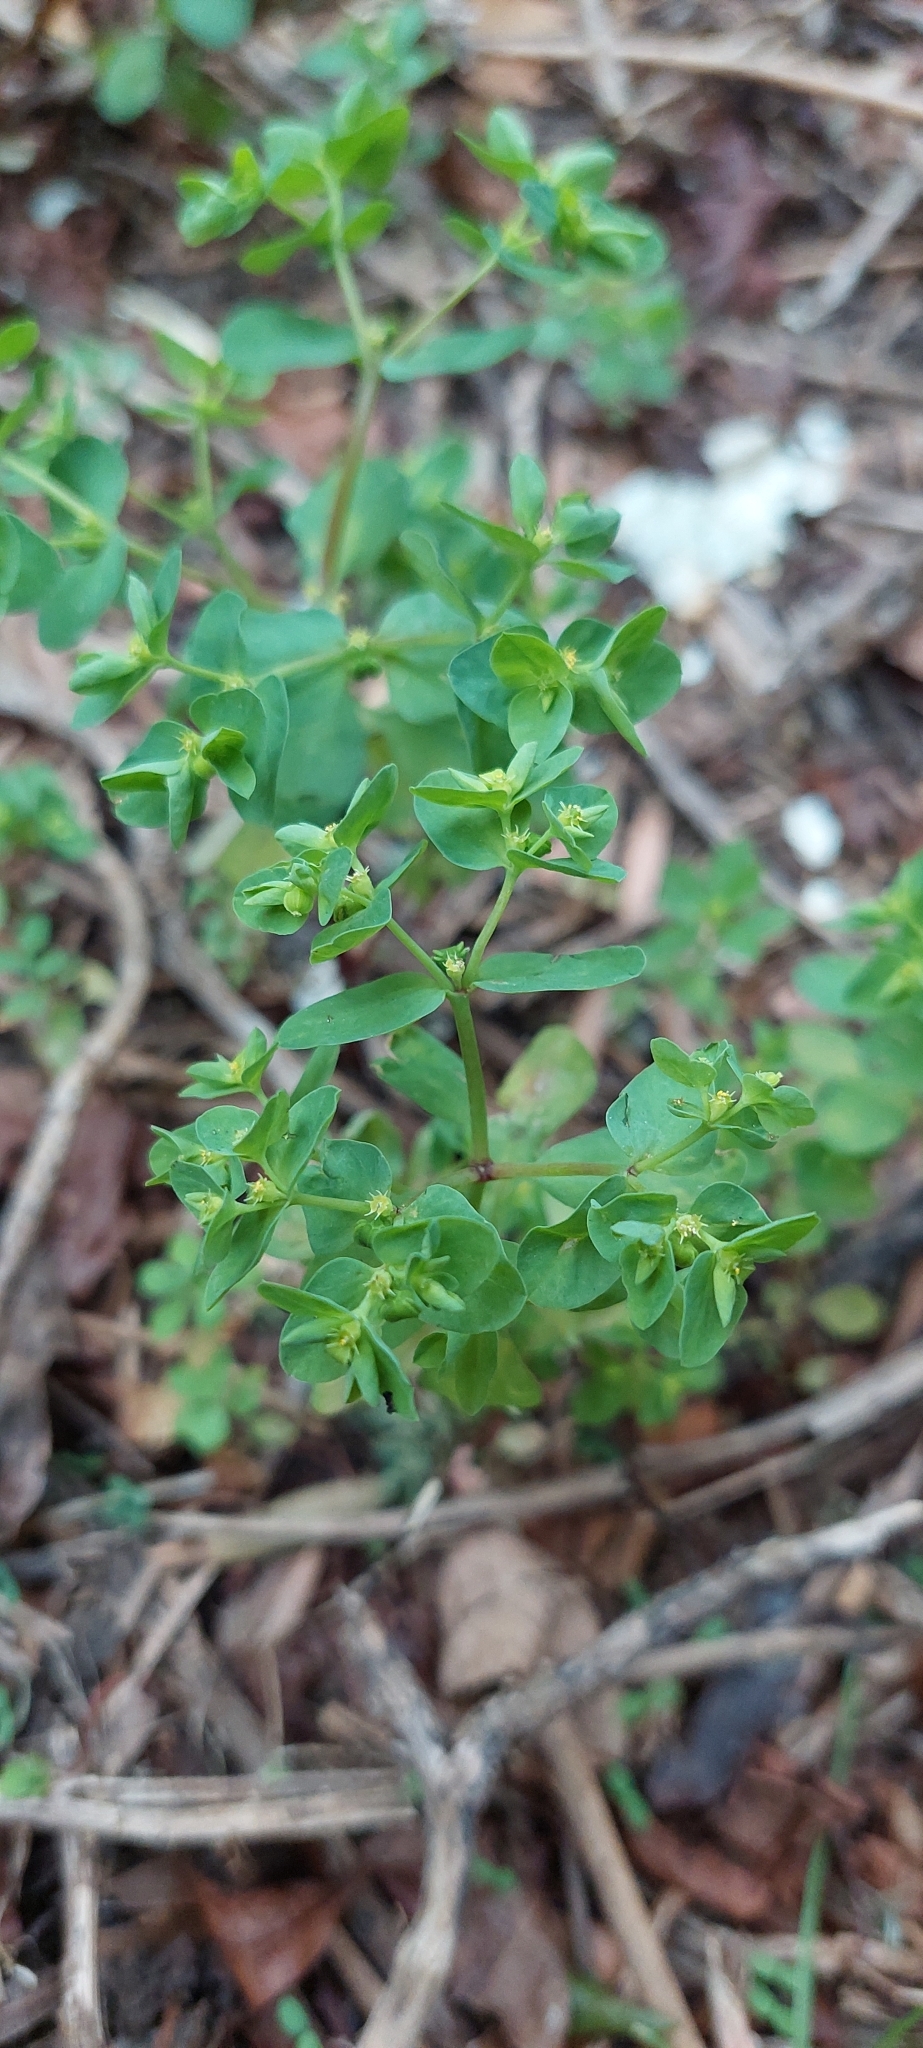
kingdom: Plantae
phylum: Tracheophyta
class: Magnoliopsida
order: Malpighiales
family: Euphorbiaceae
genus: Euphorbia
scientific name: Euphorbia peplus
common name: Petty spurge
